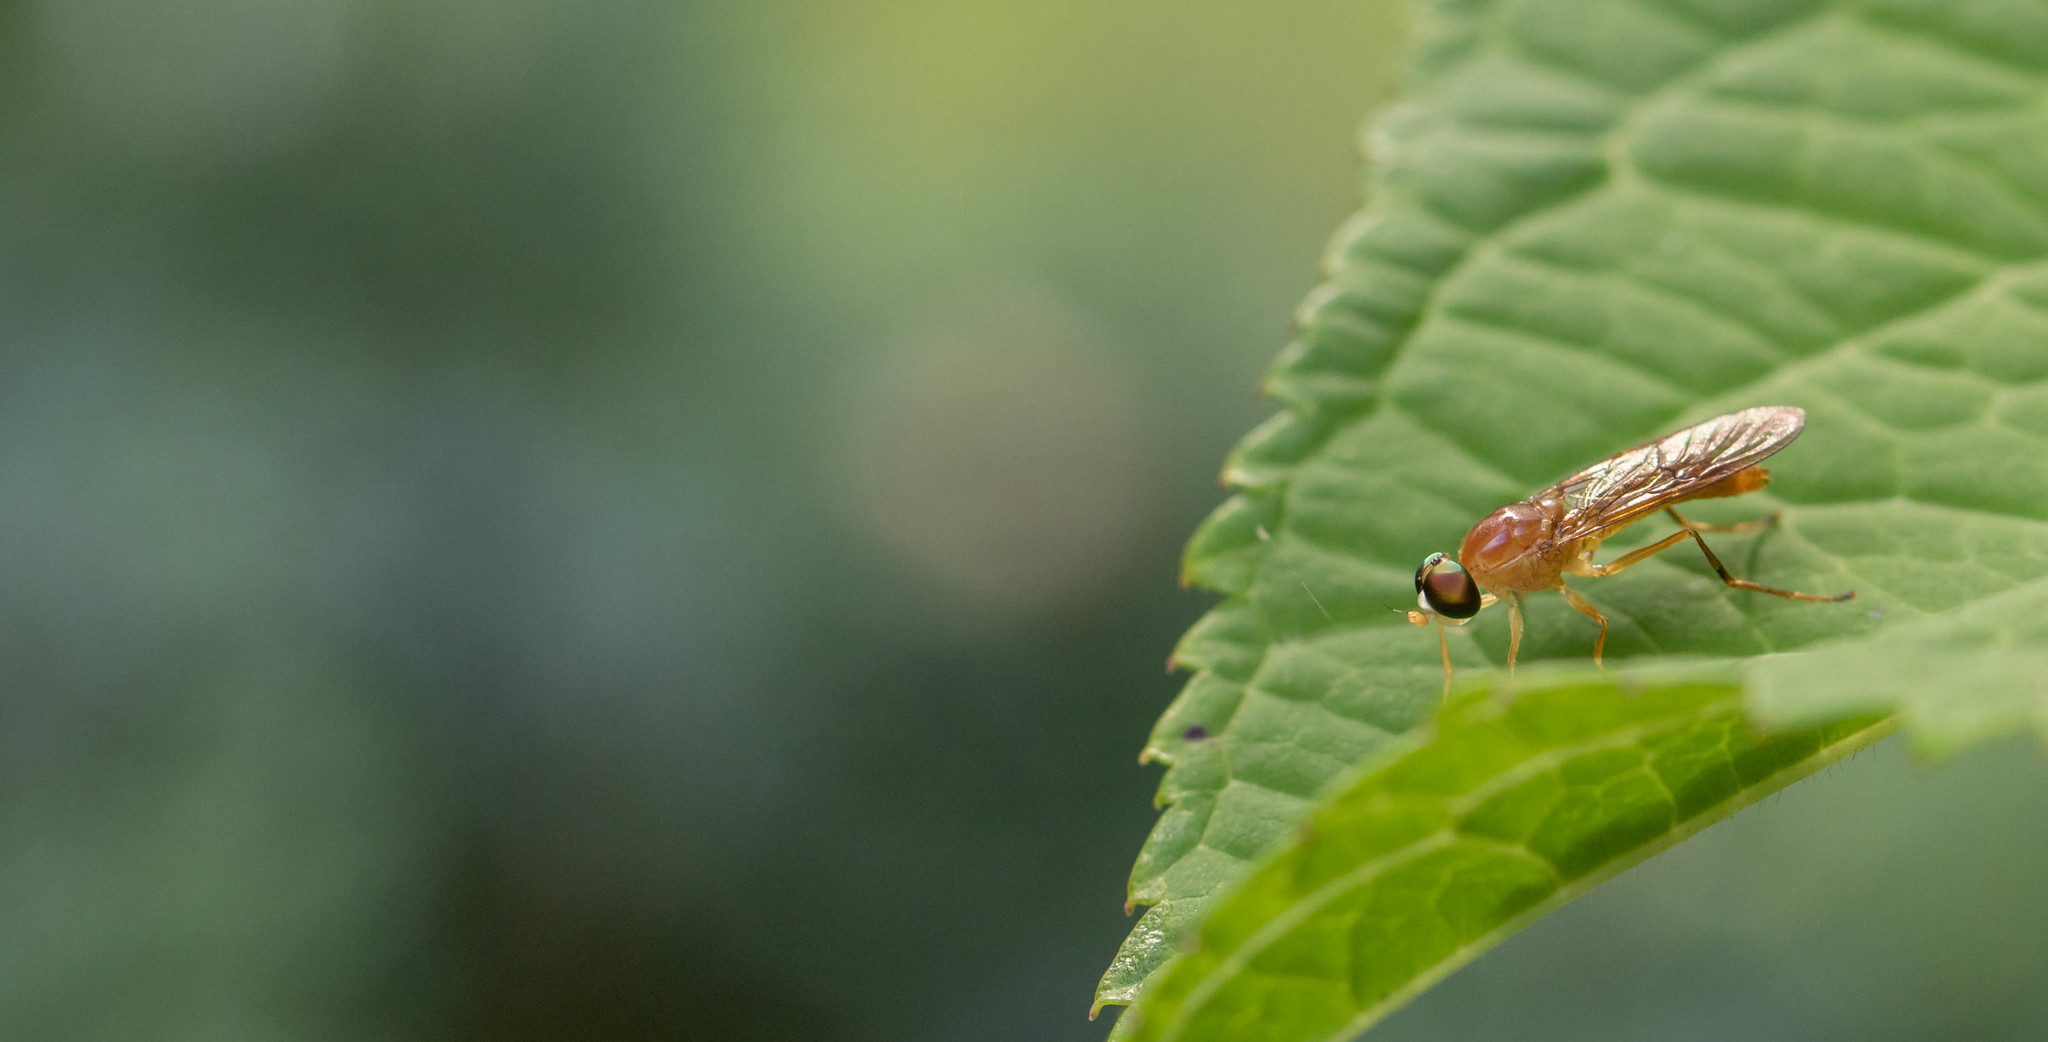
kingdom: Animalia
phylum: Arthropoda
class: Insecta
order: Diptera
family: Stratiomyidae
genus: Ptecticus
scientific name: Ptecticus trivittatus
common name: Compost fly
